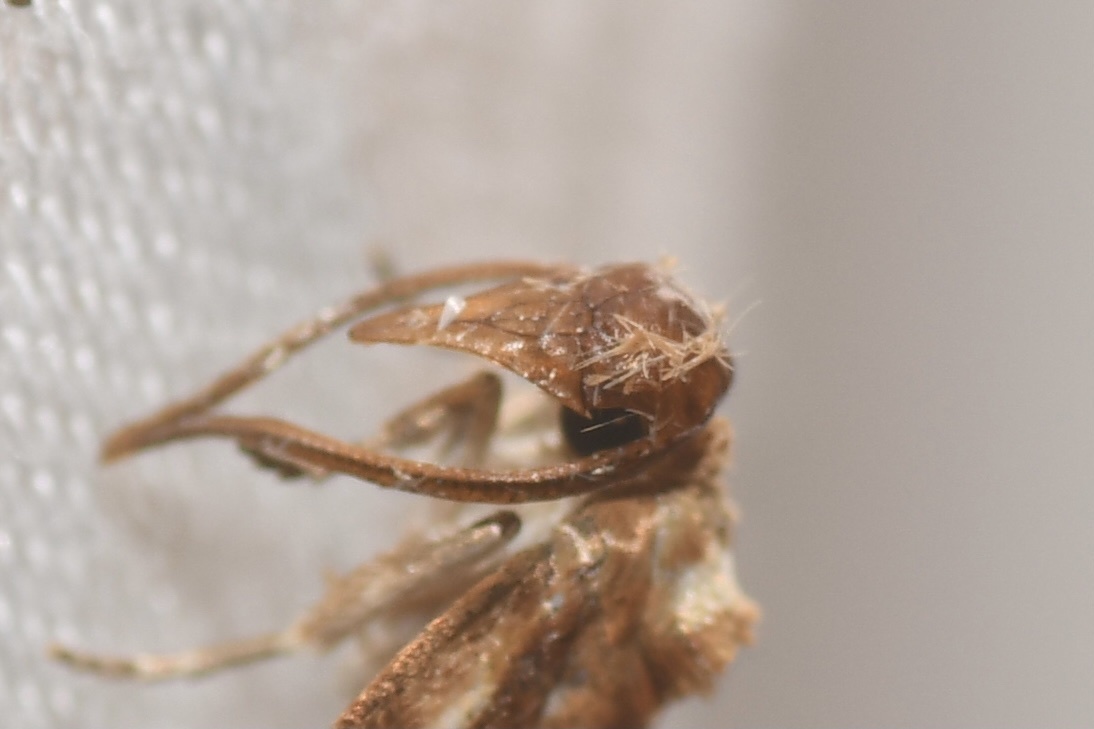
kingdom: Animalia
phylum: Arthropoda
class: Insecta
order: Lepidoptera
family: Tortricidae
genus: Acleris
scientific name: Acleris variana
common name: Eastern black-headed budworm moth
